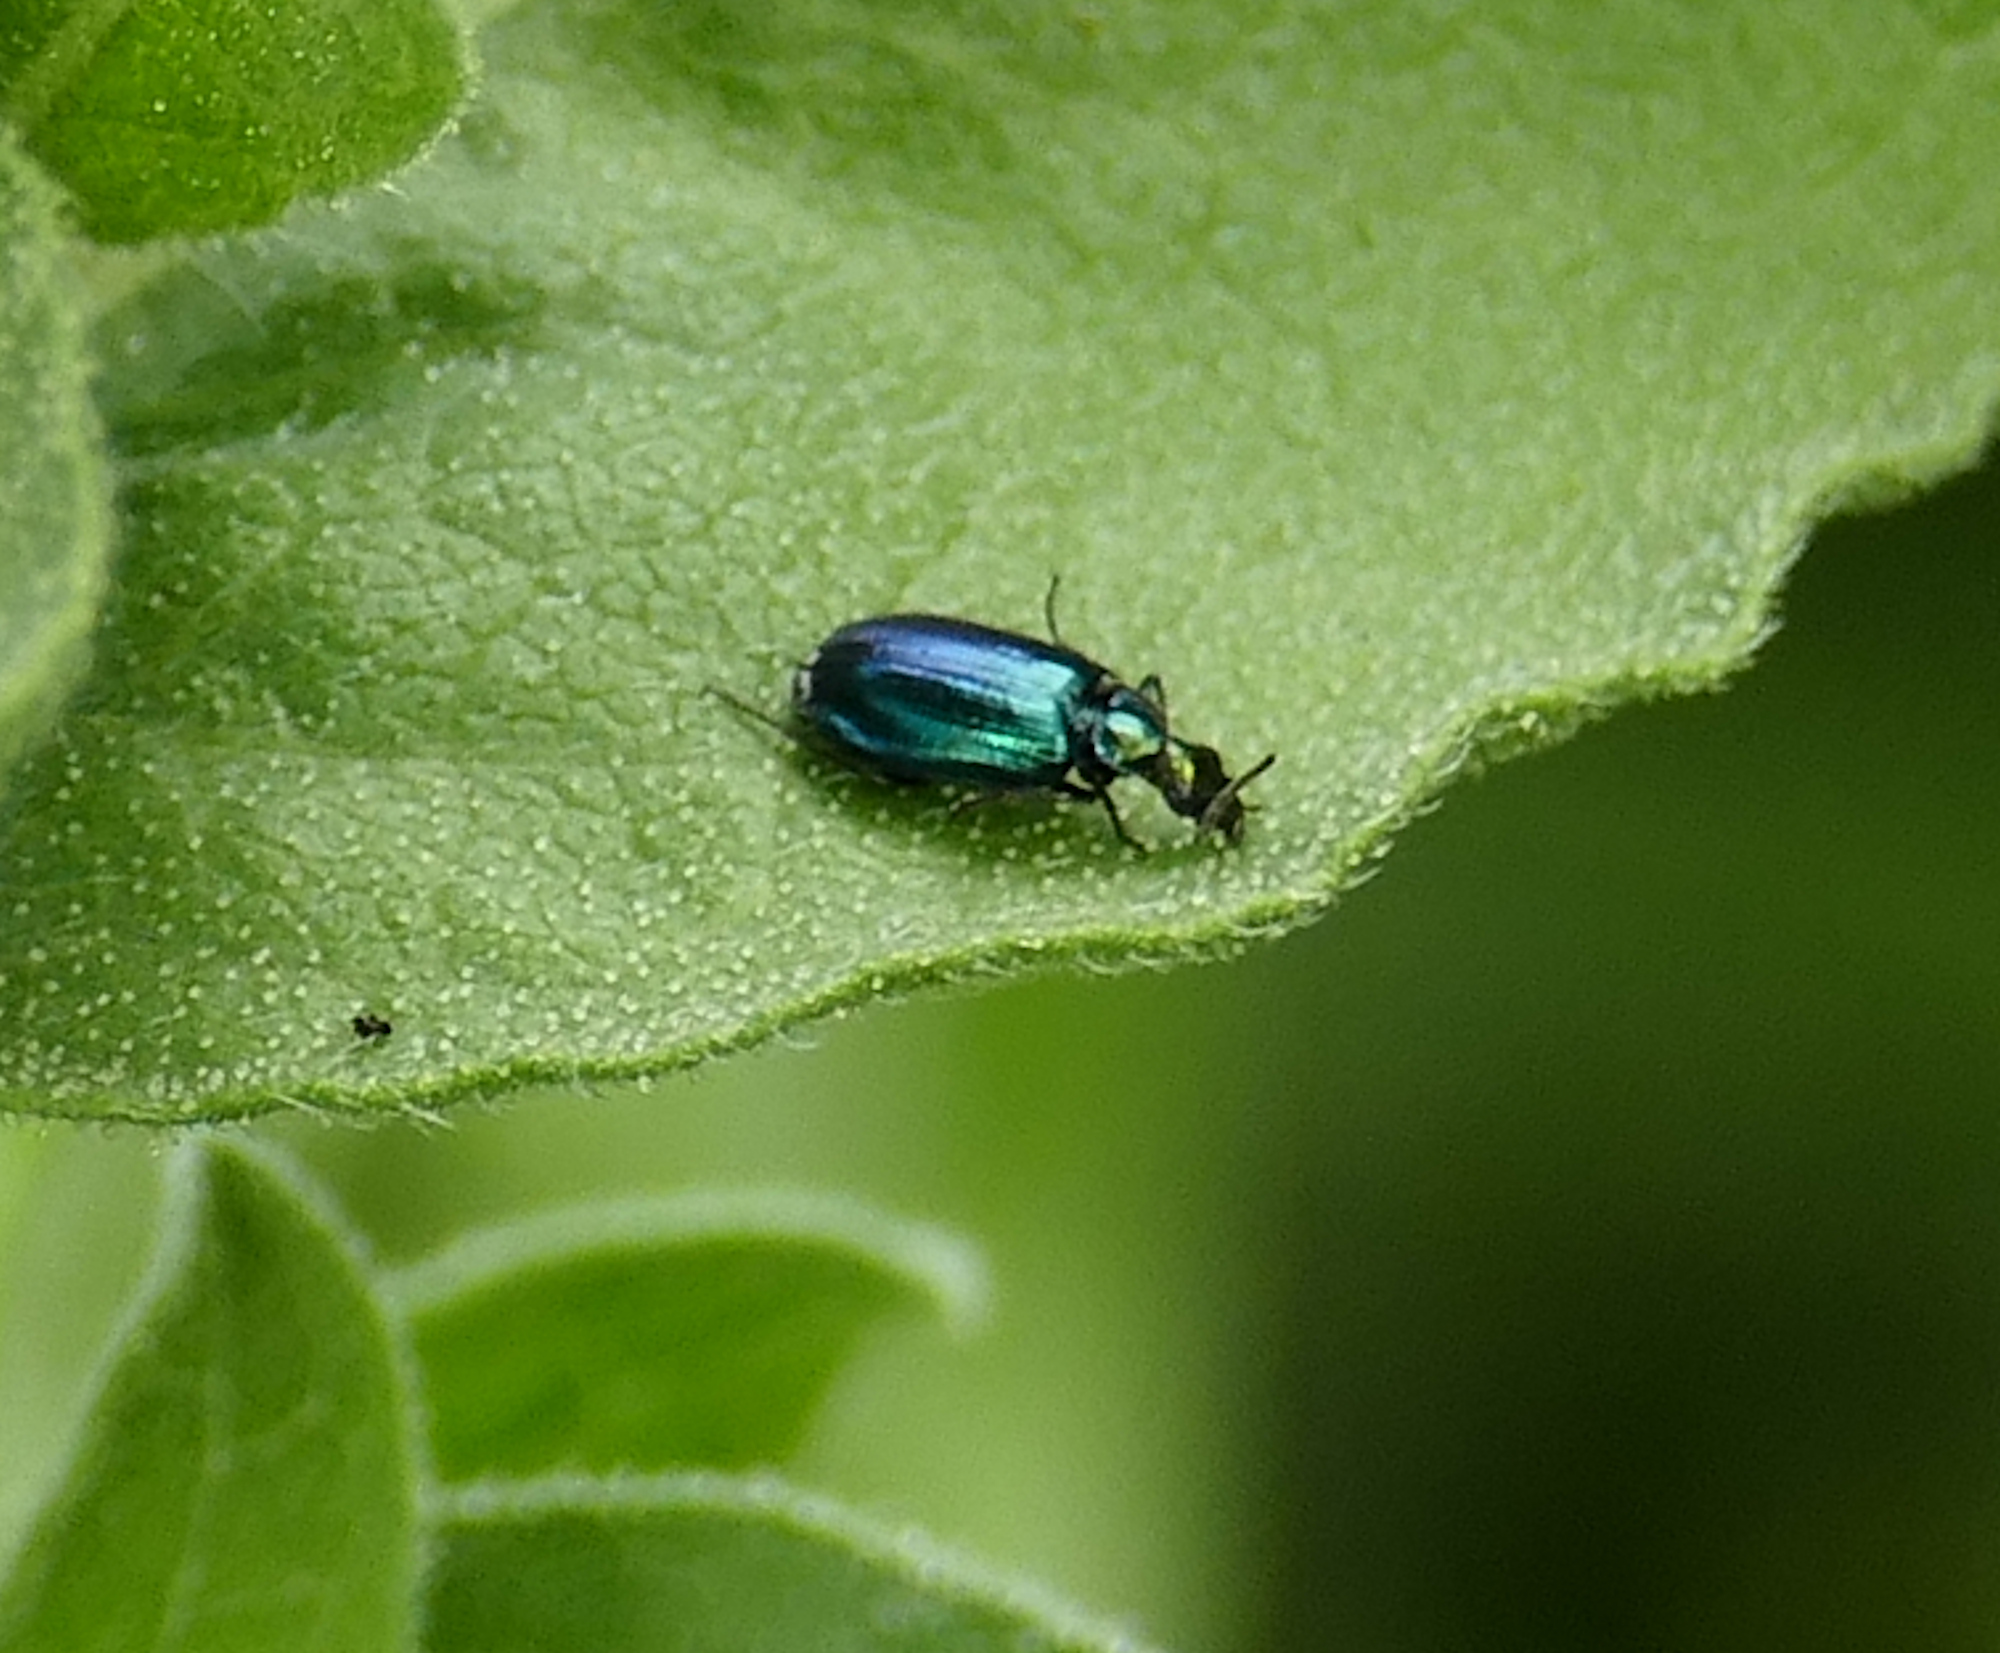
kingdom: Animalia
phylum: Arthropoda
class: Insecta
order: Coleoptera
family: Carabidae
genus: Lebia
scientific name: Lebia viridis
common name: Flower lebia beetle
